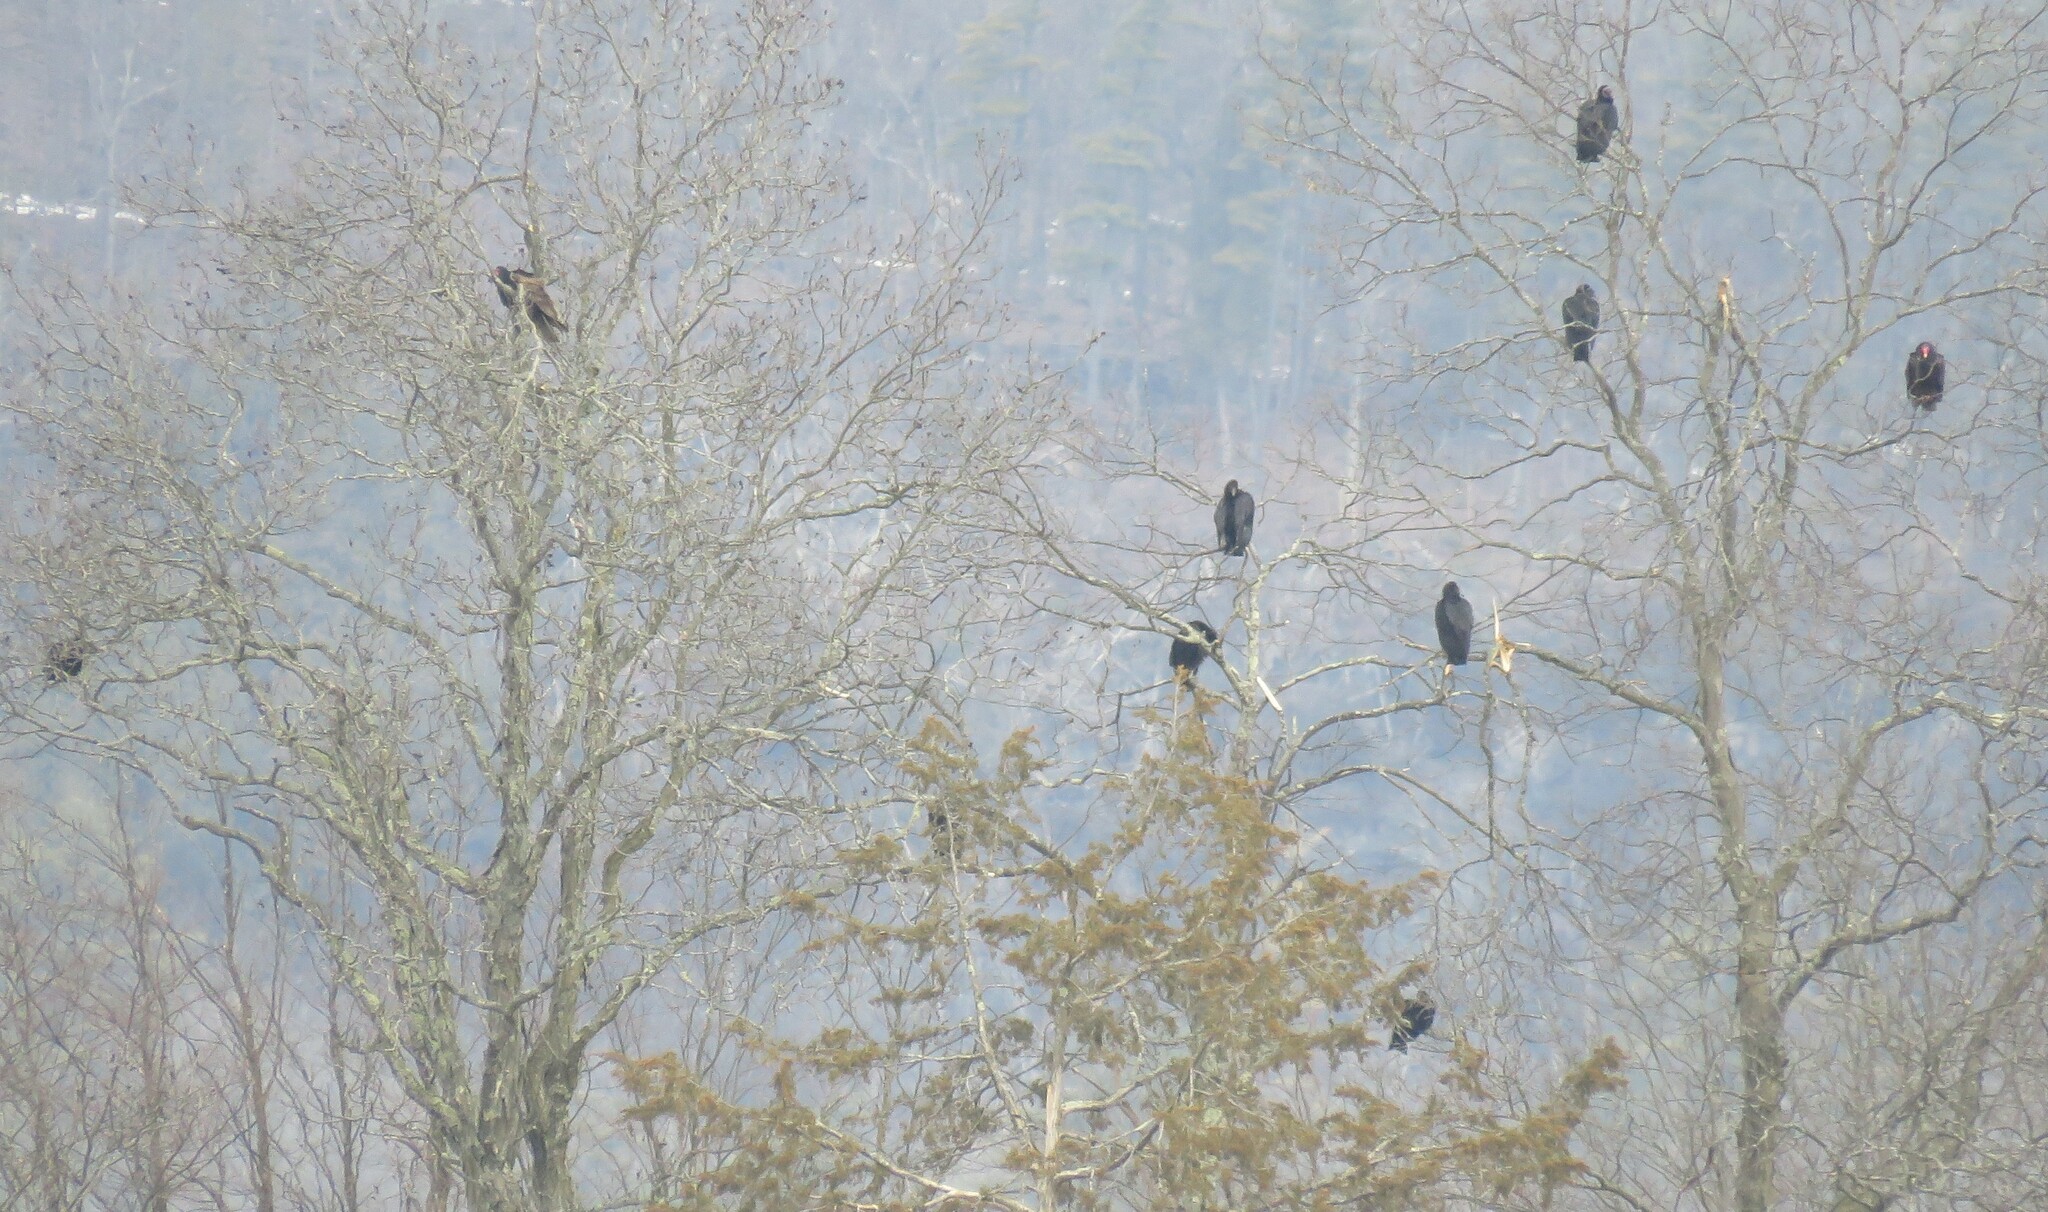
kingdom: Animalia
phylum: Chordata
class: Aves
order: Accipitriformes
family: Cathartidae
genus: Coragyps
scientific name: Coragyps atratus
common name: Black vulture
